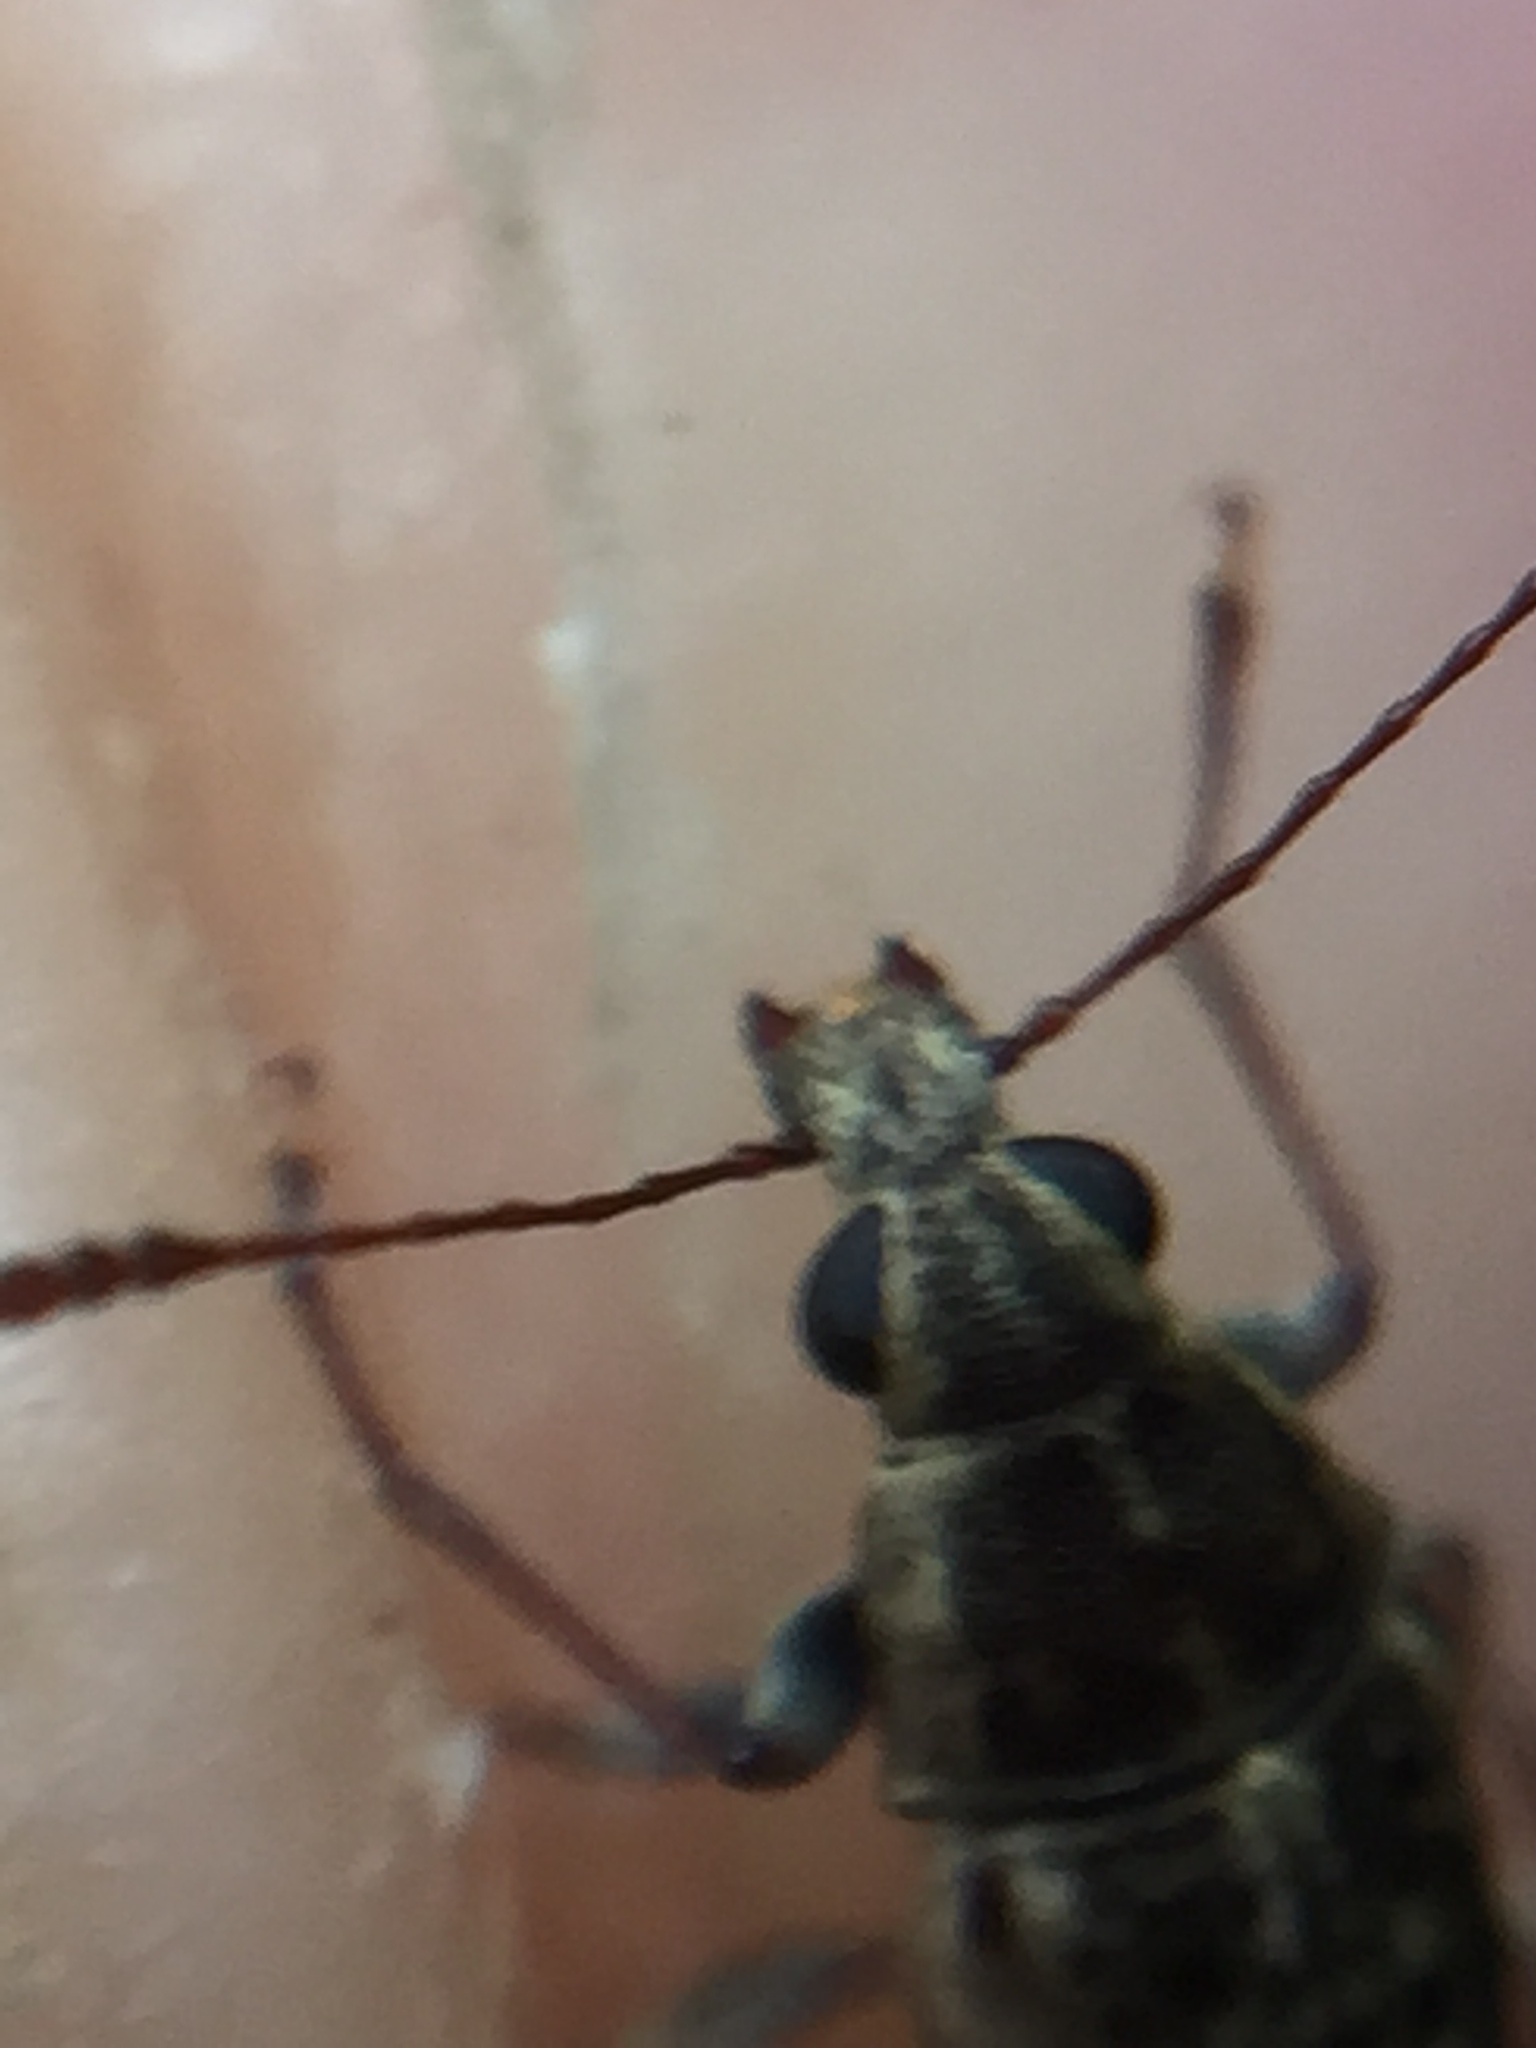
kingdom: Animalia
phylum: Arthropoda
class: Insecta
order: Coleoptera
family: Anthribidae
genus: Cacephatus
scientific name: Cacephatus huttoni
